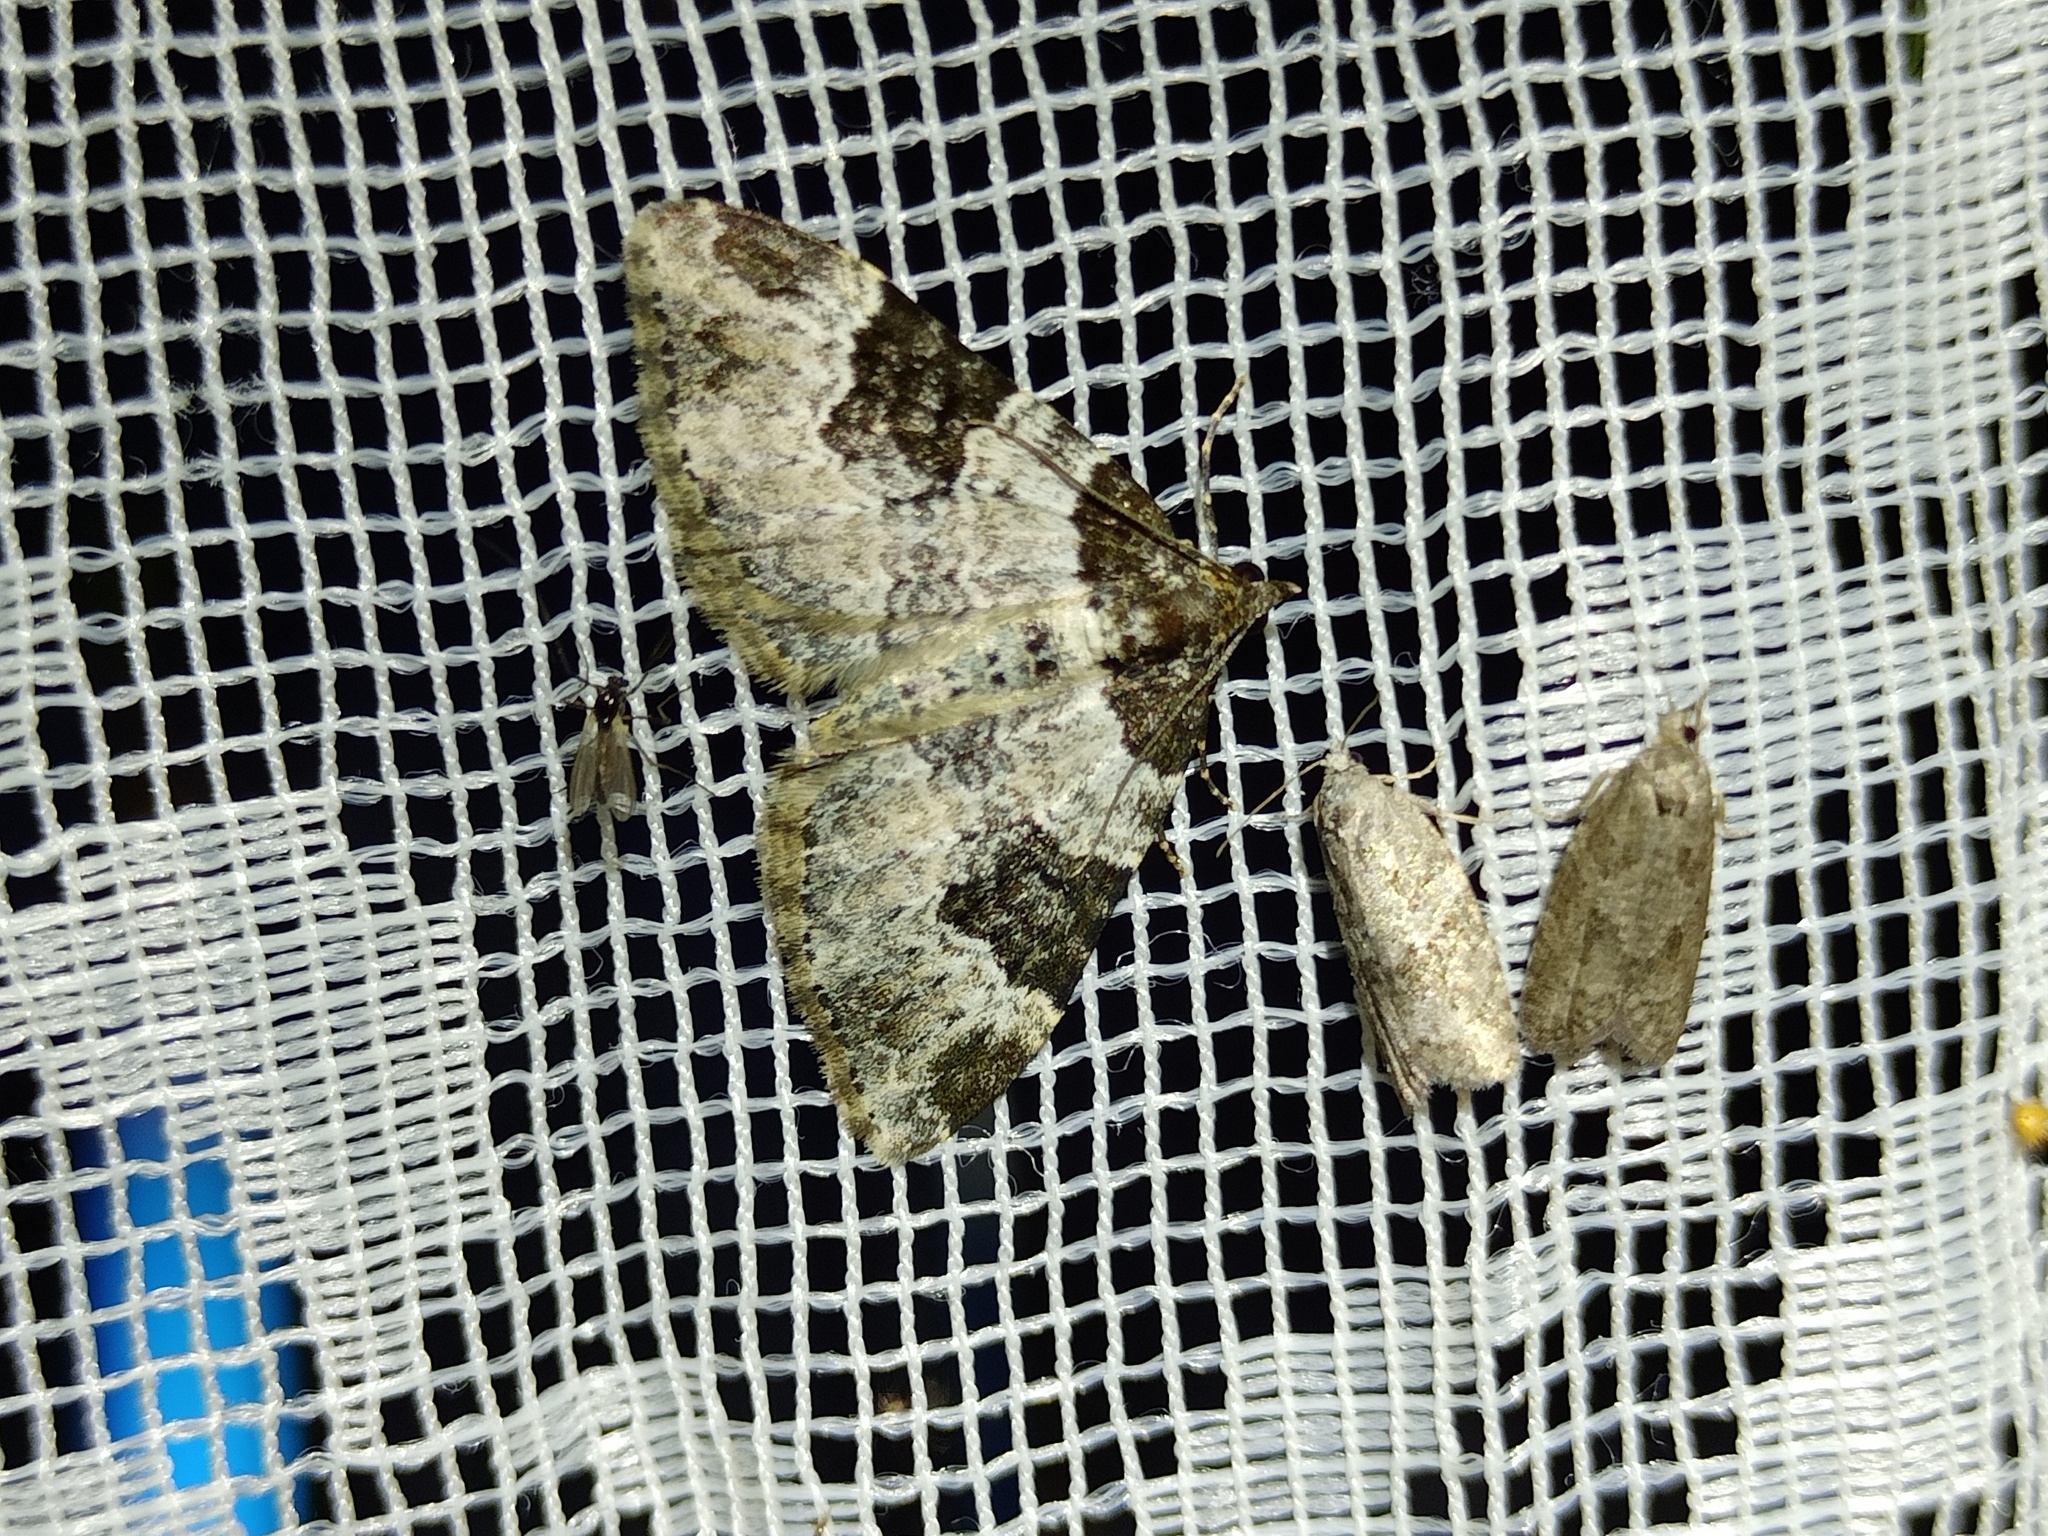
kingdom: Animalia
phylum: Arthropoda
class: Insecta
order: Lepidoptera
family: Geometridae
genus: Xanthorhoe
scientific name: Xanthorhoe fluctuata
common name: Garden carpet
